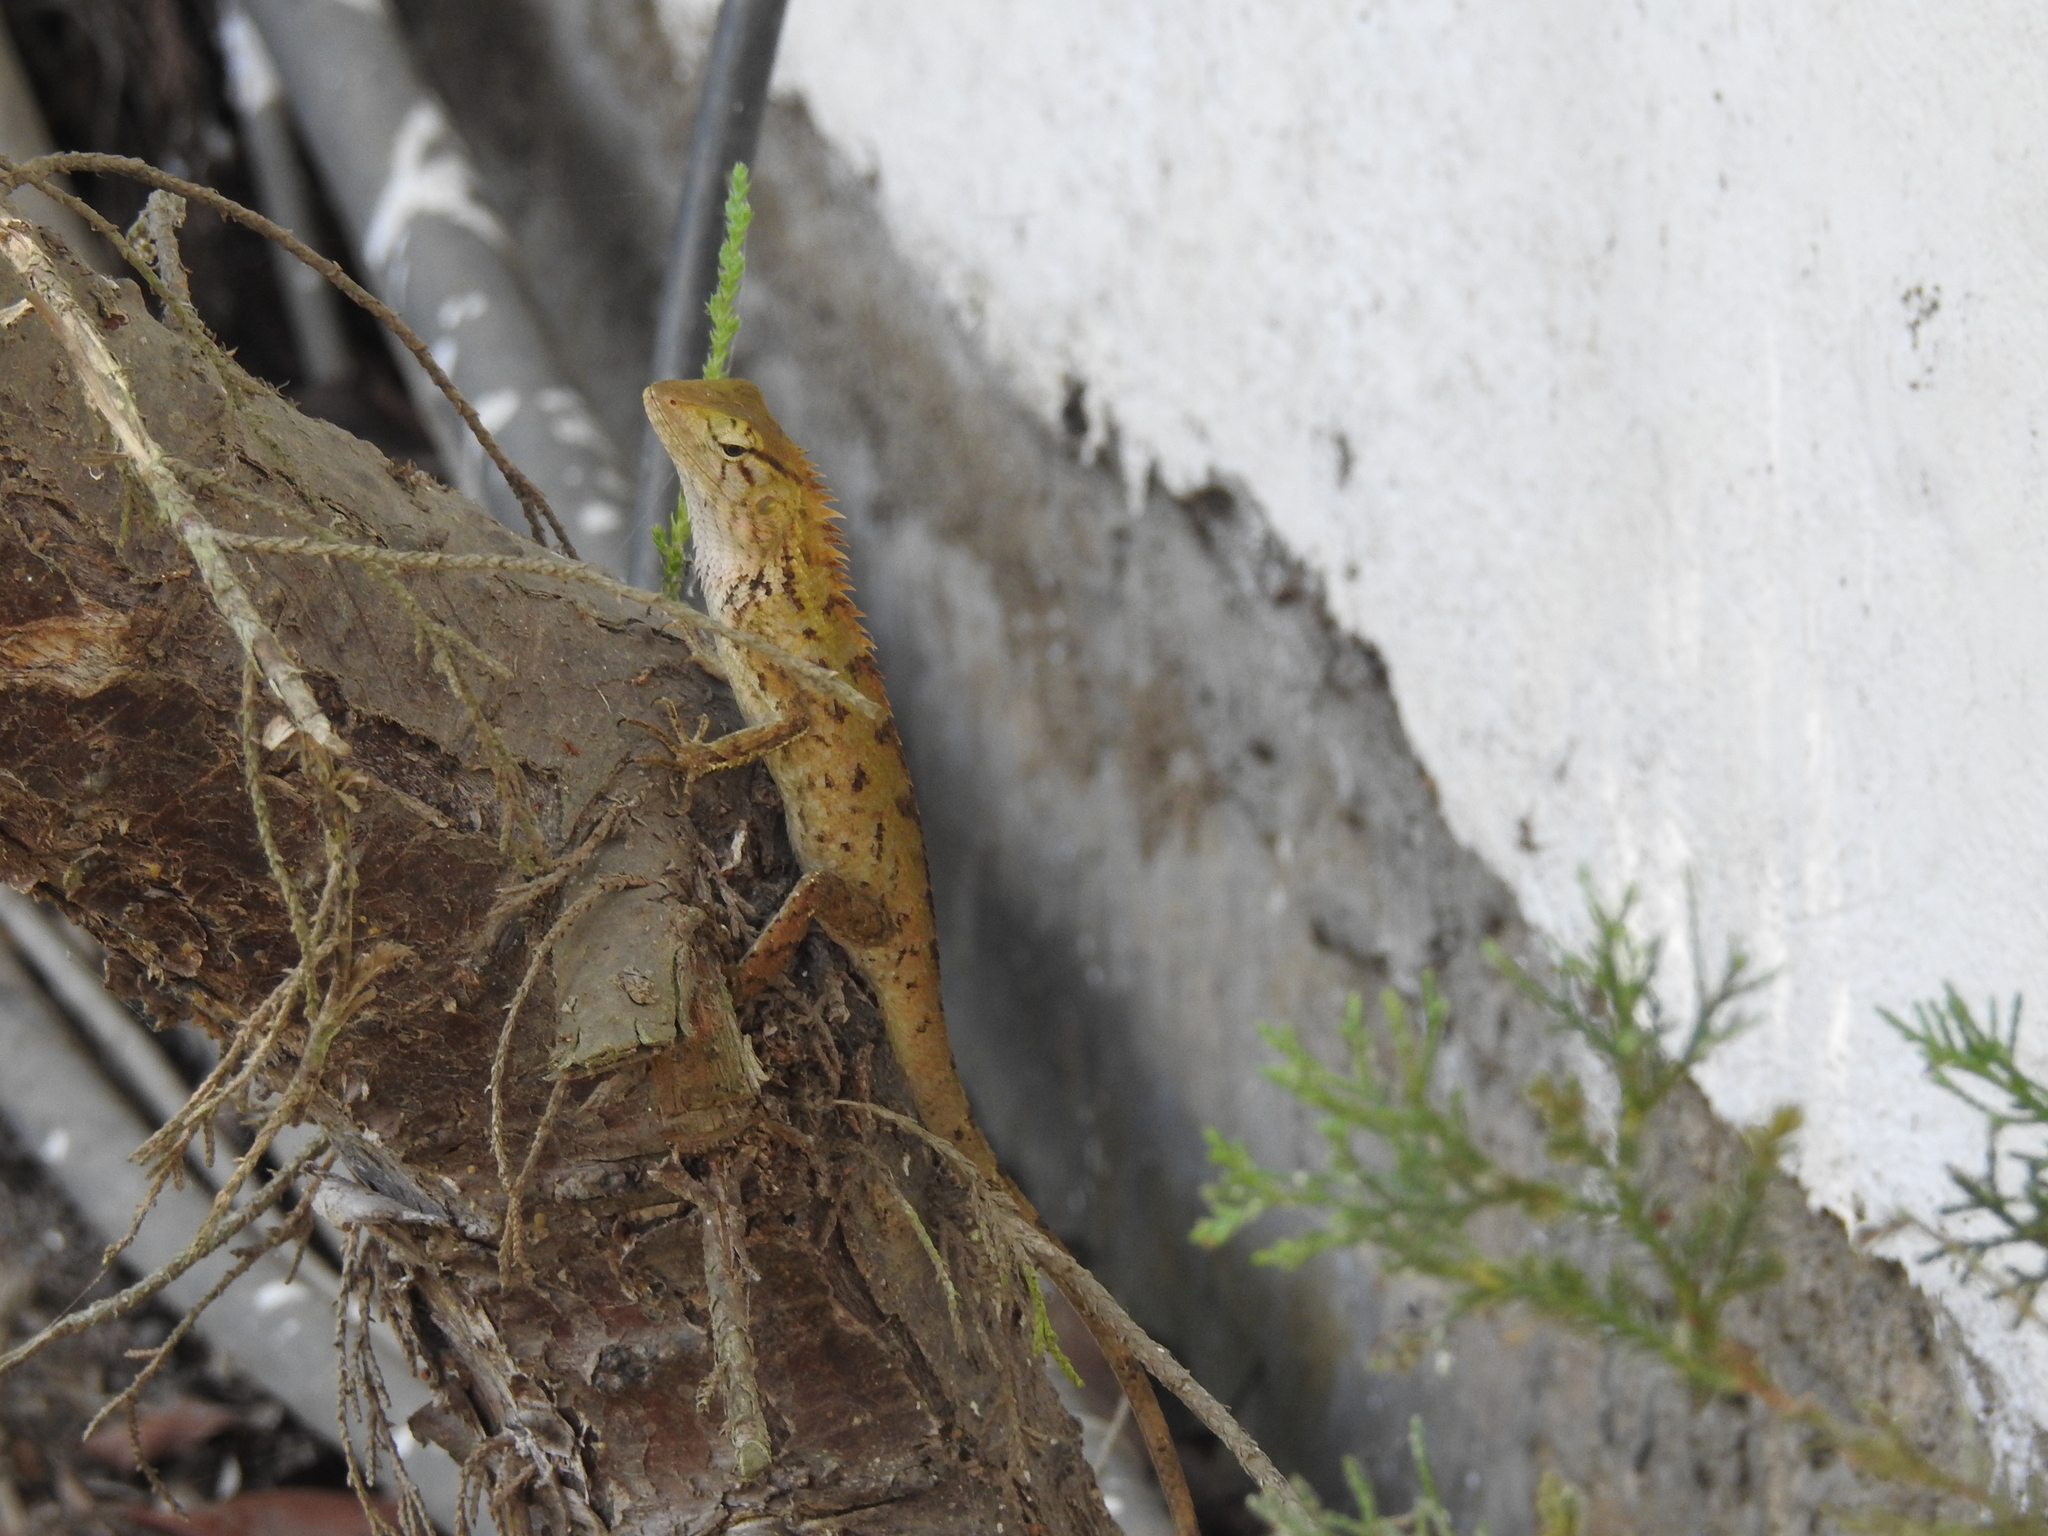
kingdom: Animalia
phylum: Chordata
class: Squamata
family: Agamidae
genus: Calotes
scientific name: Calotes versicolor
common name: Oriental garden lizard
